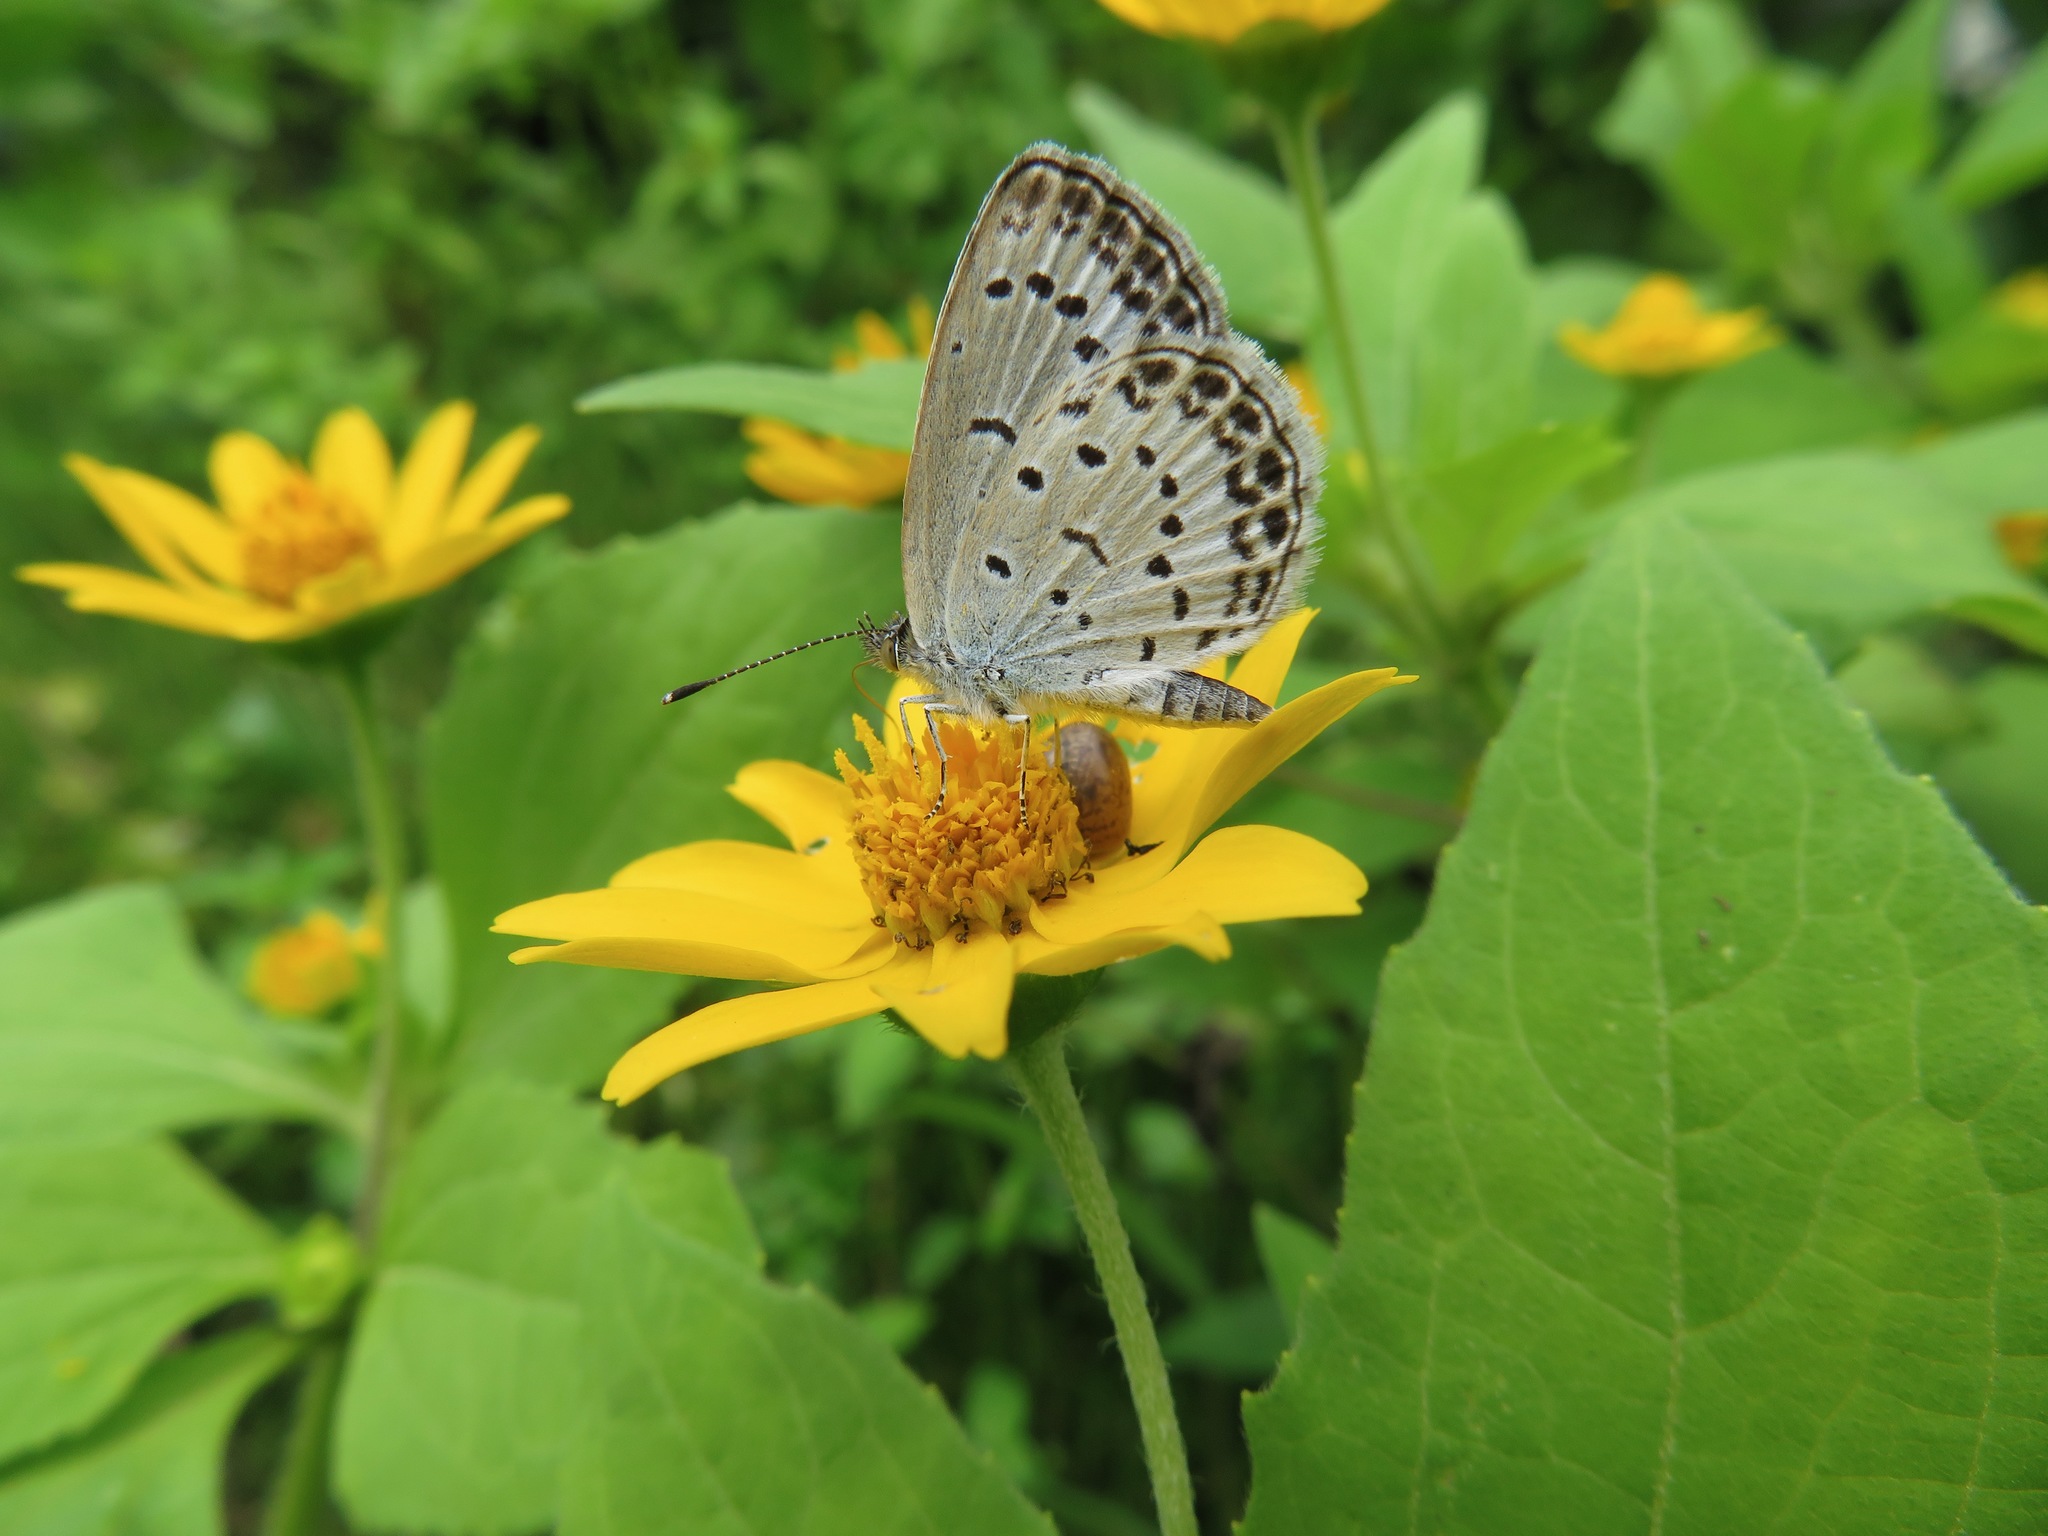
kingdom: Animalia
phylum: Arthropoda
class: Insecta
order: Lepidoptera
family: Lycaenidae
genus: Pseudozizeeria
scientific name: Pseudozizeeria maha
